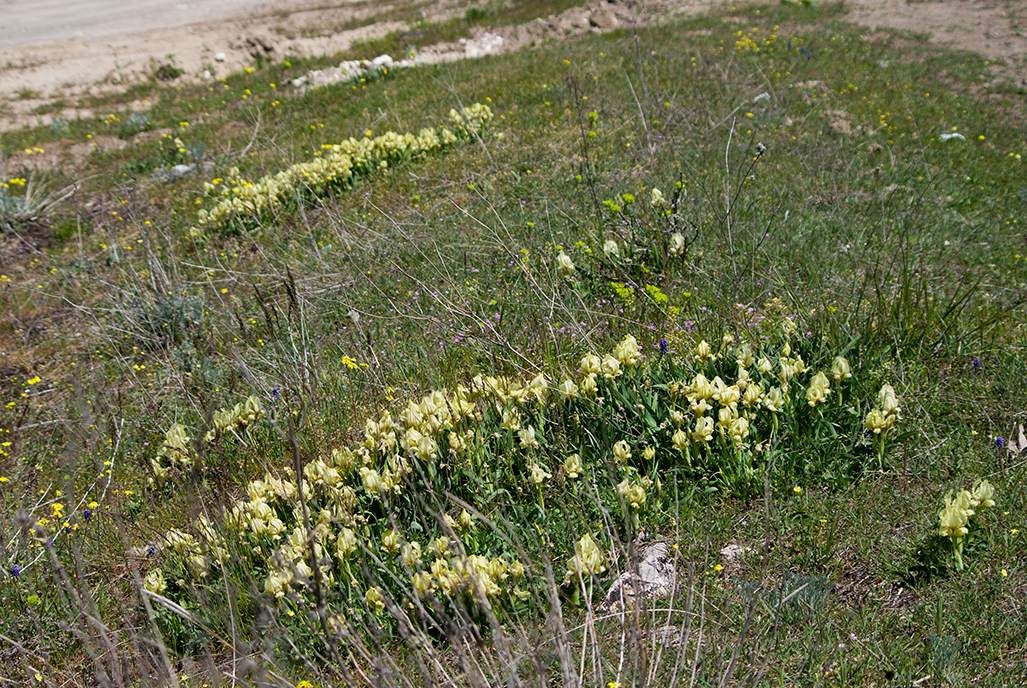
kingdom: Plantae
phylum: Tracheophyta
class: Liliopsida
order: Asparagales
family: Iridaceae
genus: Iris
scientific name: Iris suaveolens
